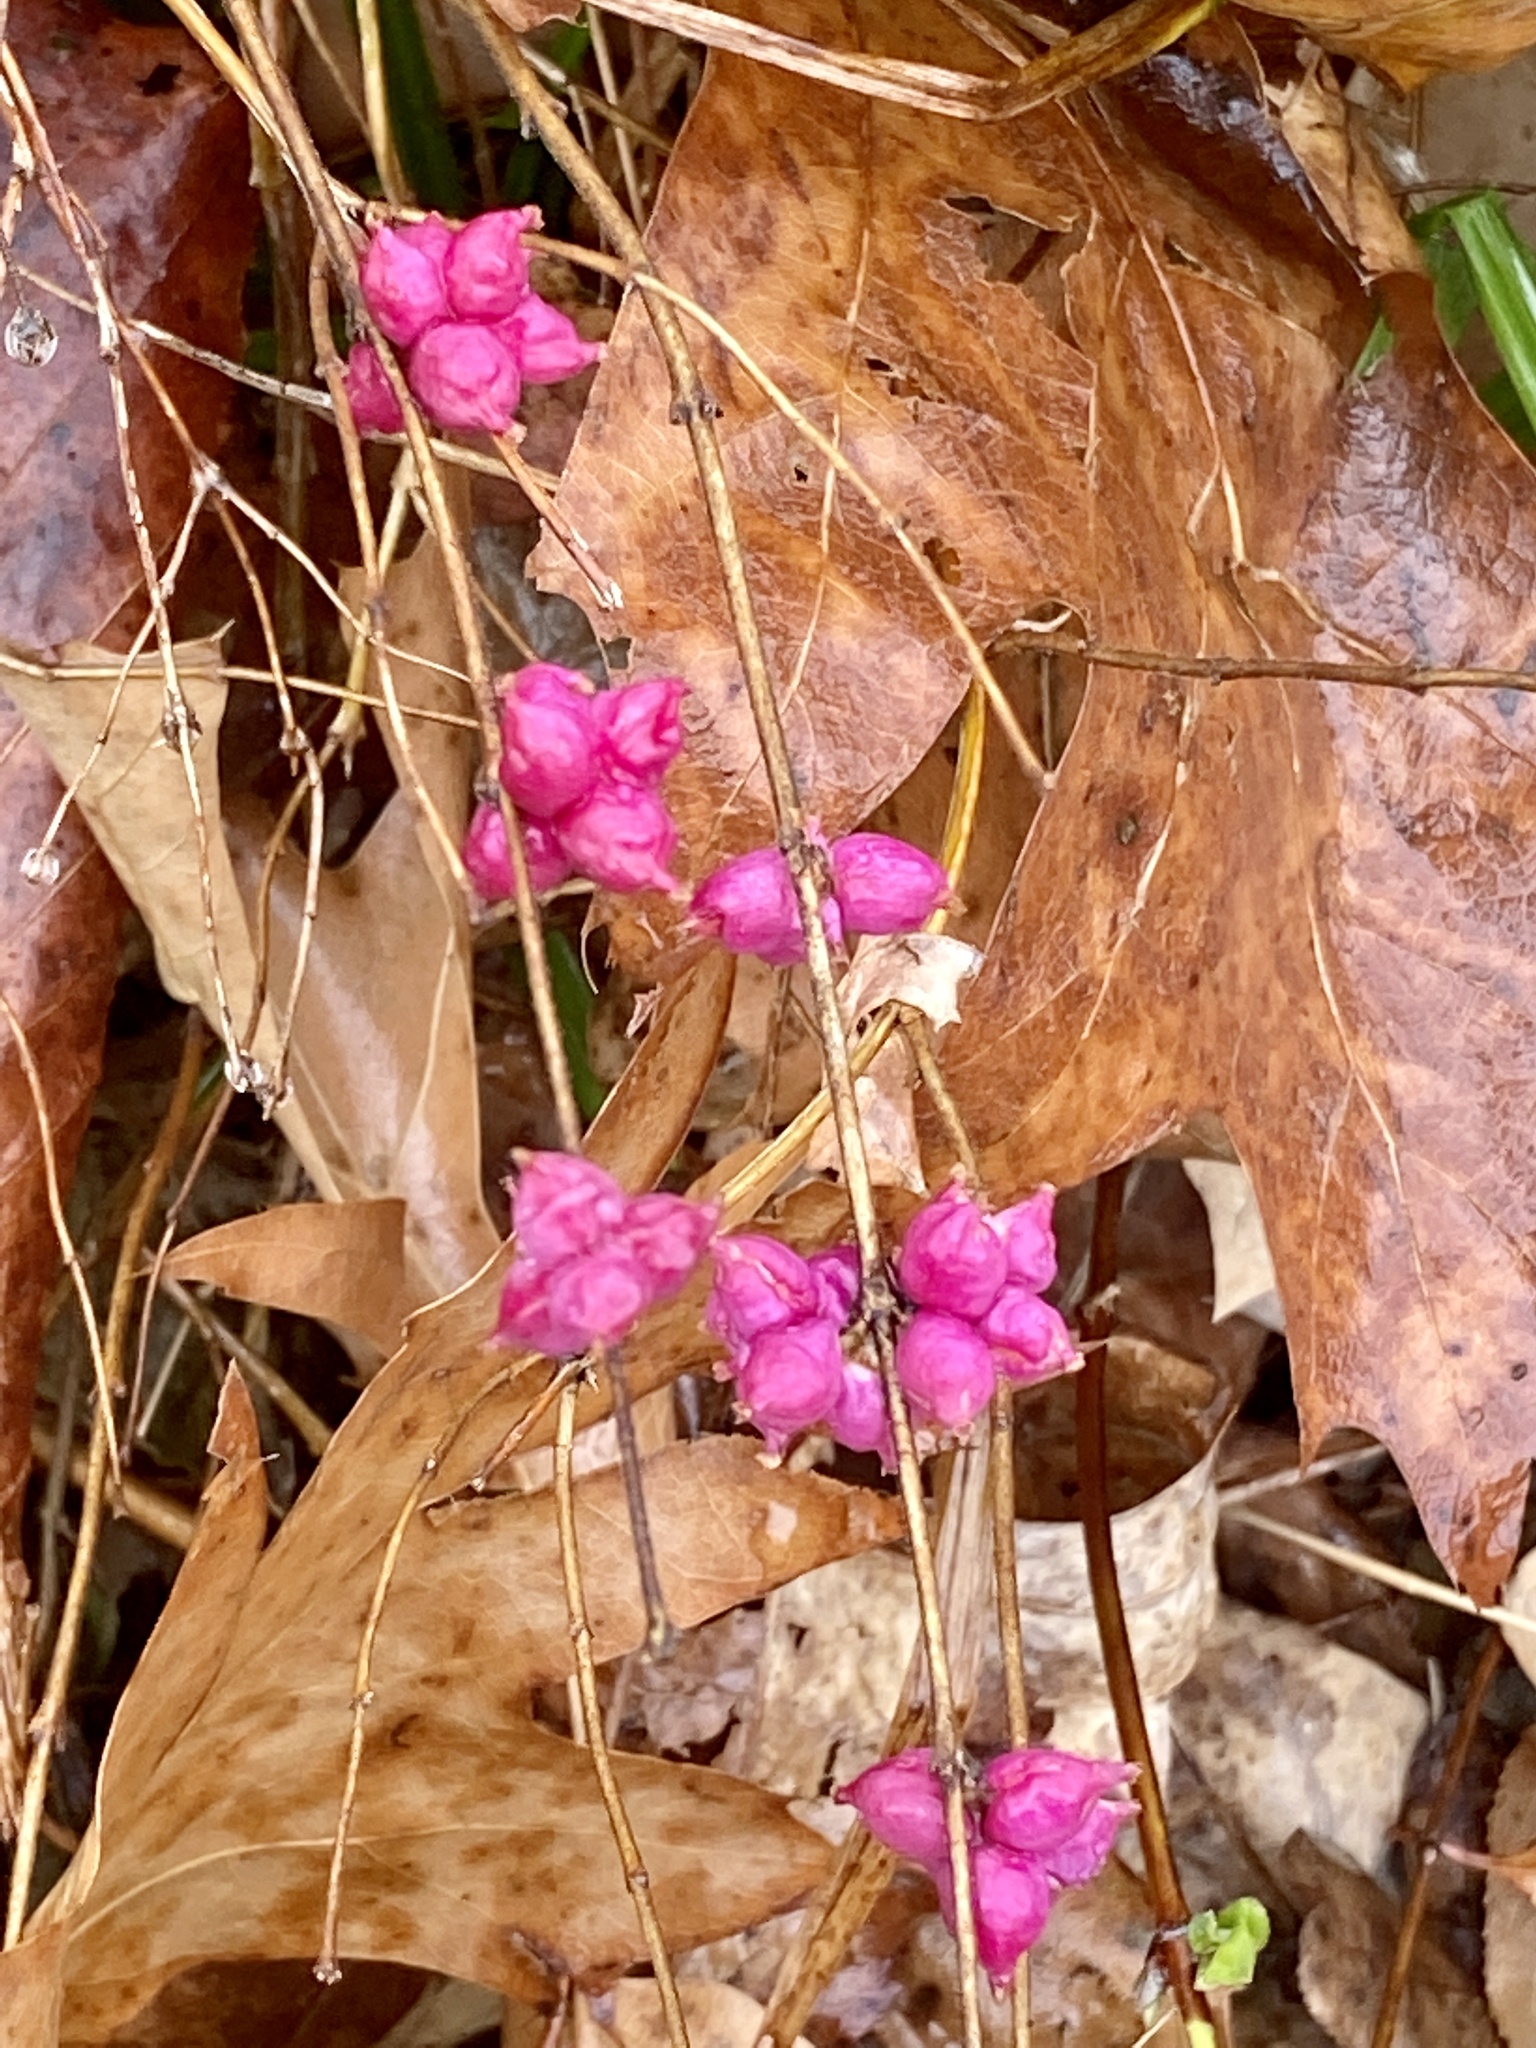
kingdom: Plantae
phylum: Tracheophyta
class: Magnoliopsida
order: Dipsacales
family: Caprifoliaceae
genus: Symphoricarpos
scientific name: Symphoricarpos orbiculatus
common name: Coralberry
